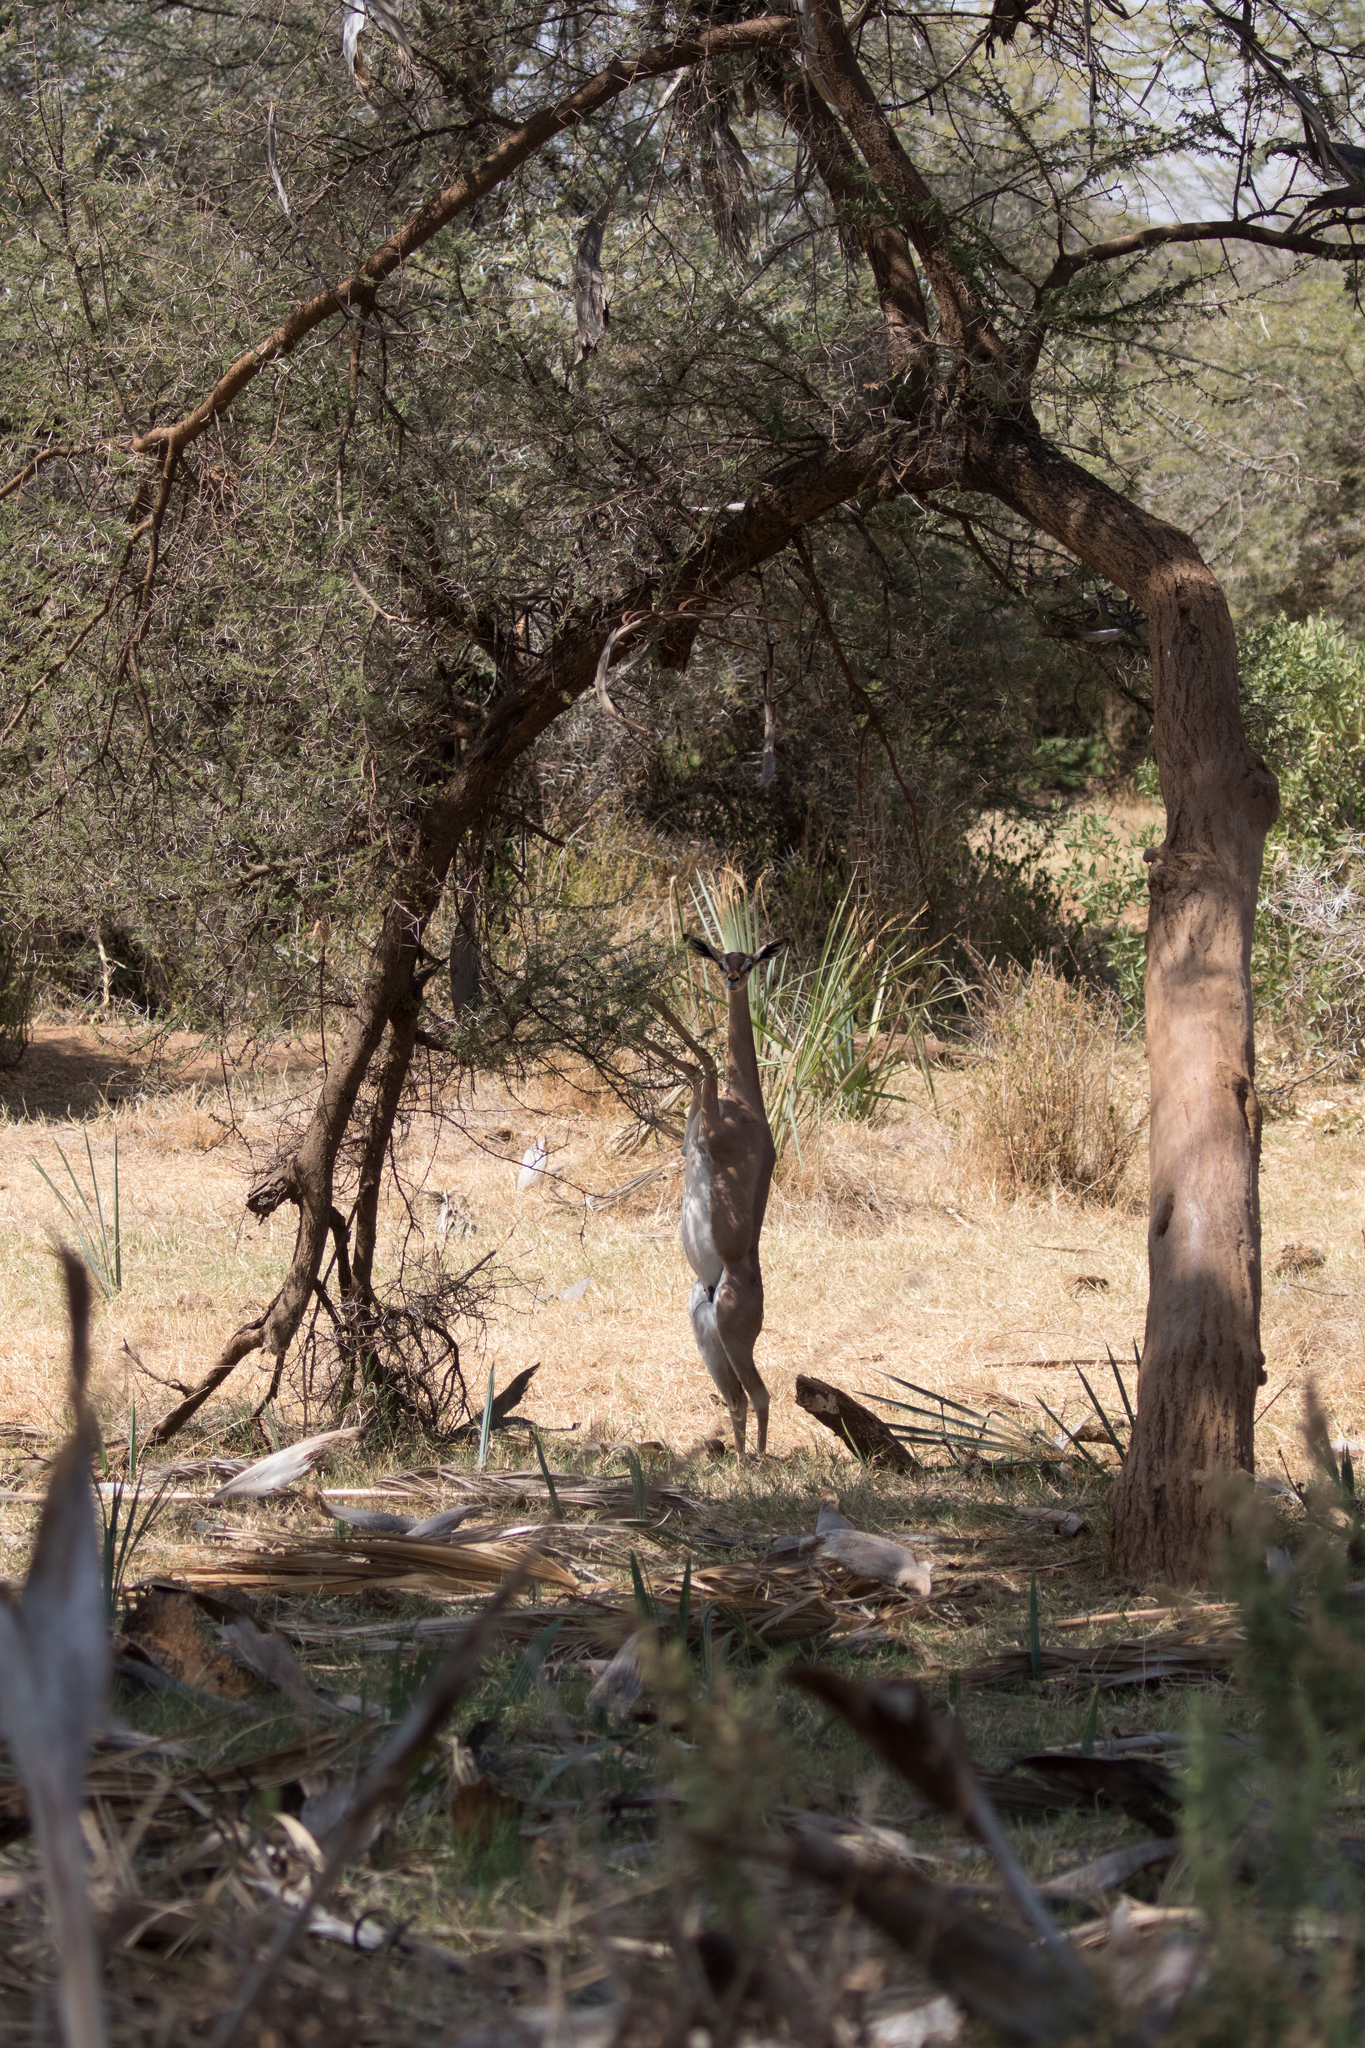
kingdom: Animalia
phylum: Chordata
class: Mammalia
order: Artiodactyla
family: Bovidae
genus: Litocranius
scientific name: Litocranius walleri
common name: Gerenuk
